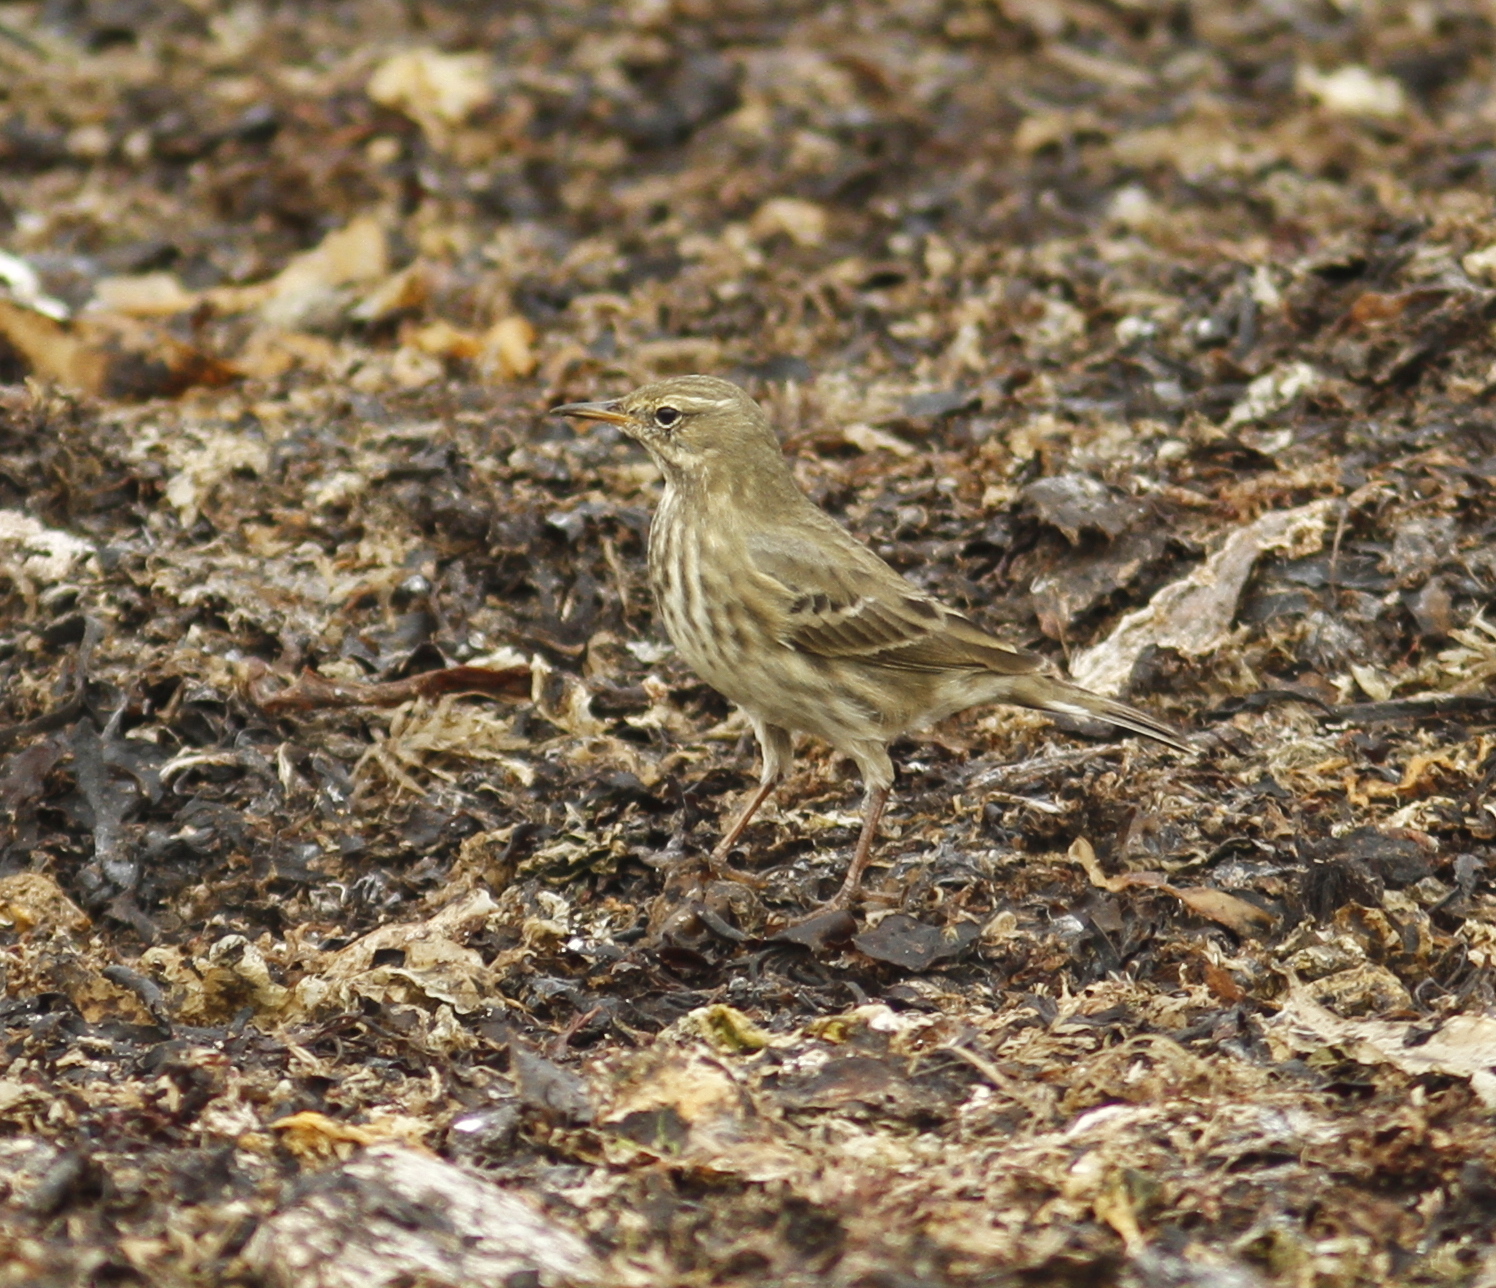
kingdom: Animalia
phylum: Chordata
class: Aves
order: Passeriformes
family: Motacillidae
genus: Anthus
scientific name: Anthus petrosus
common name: Eurasian rock pipit
